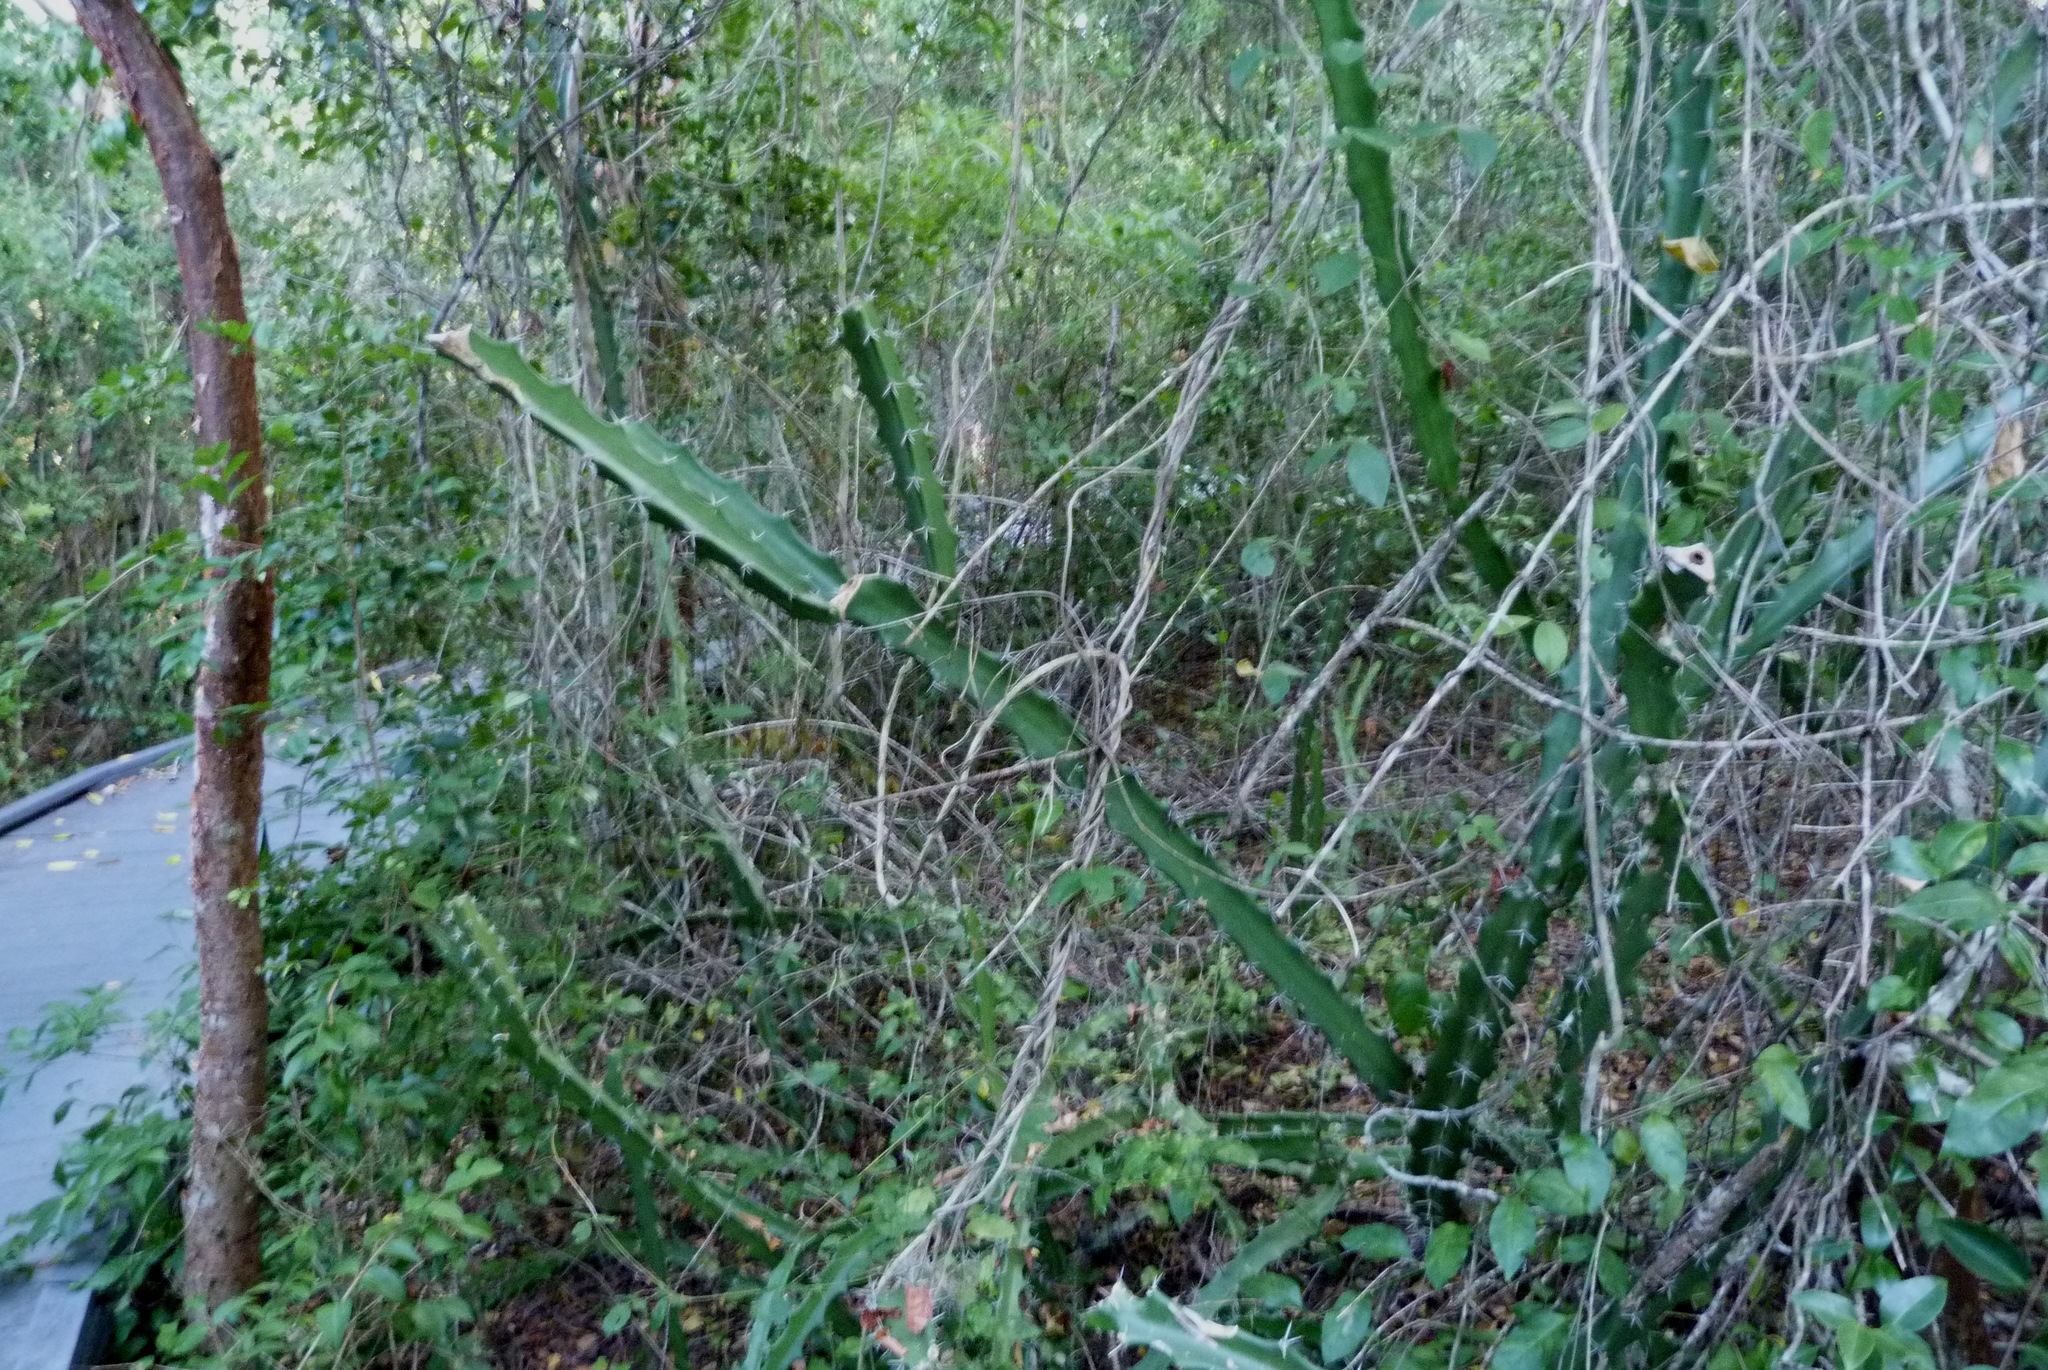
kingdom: Plantae
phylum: Tracheophyta
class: Magnoliopsida
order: Caryophyllales
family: Cactaceae
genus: Acanthocereus
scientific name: Acanthocereus tetragonus
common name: Triangle cactus
